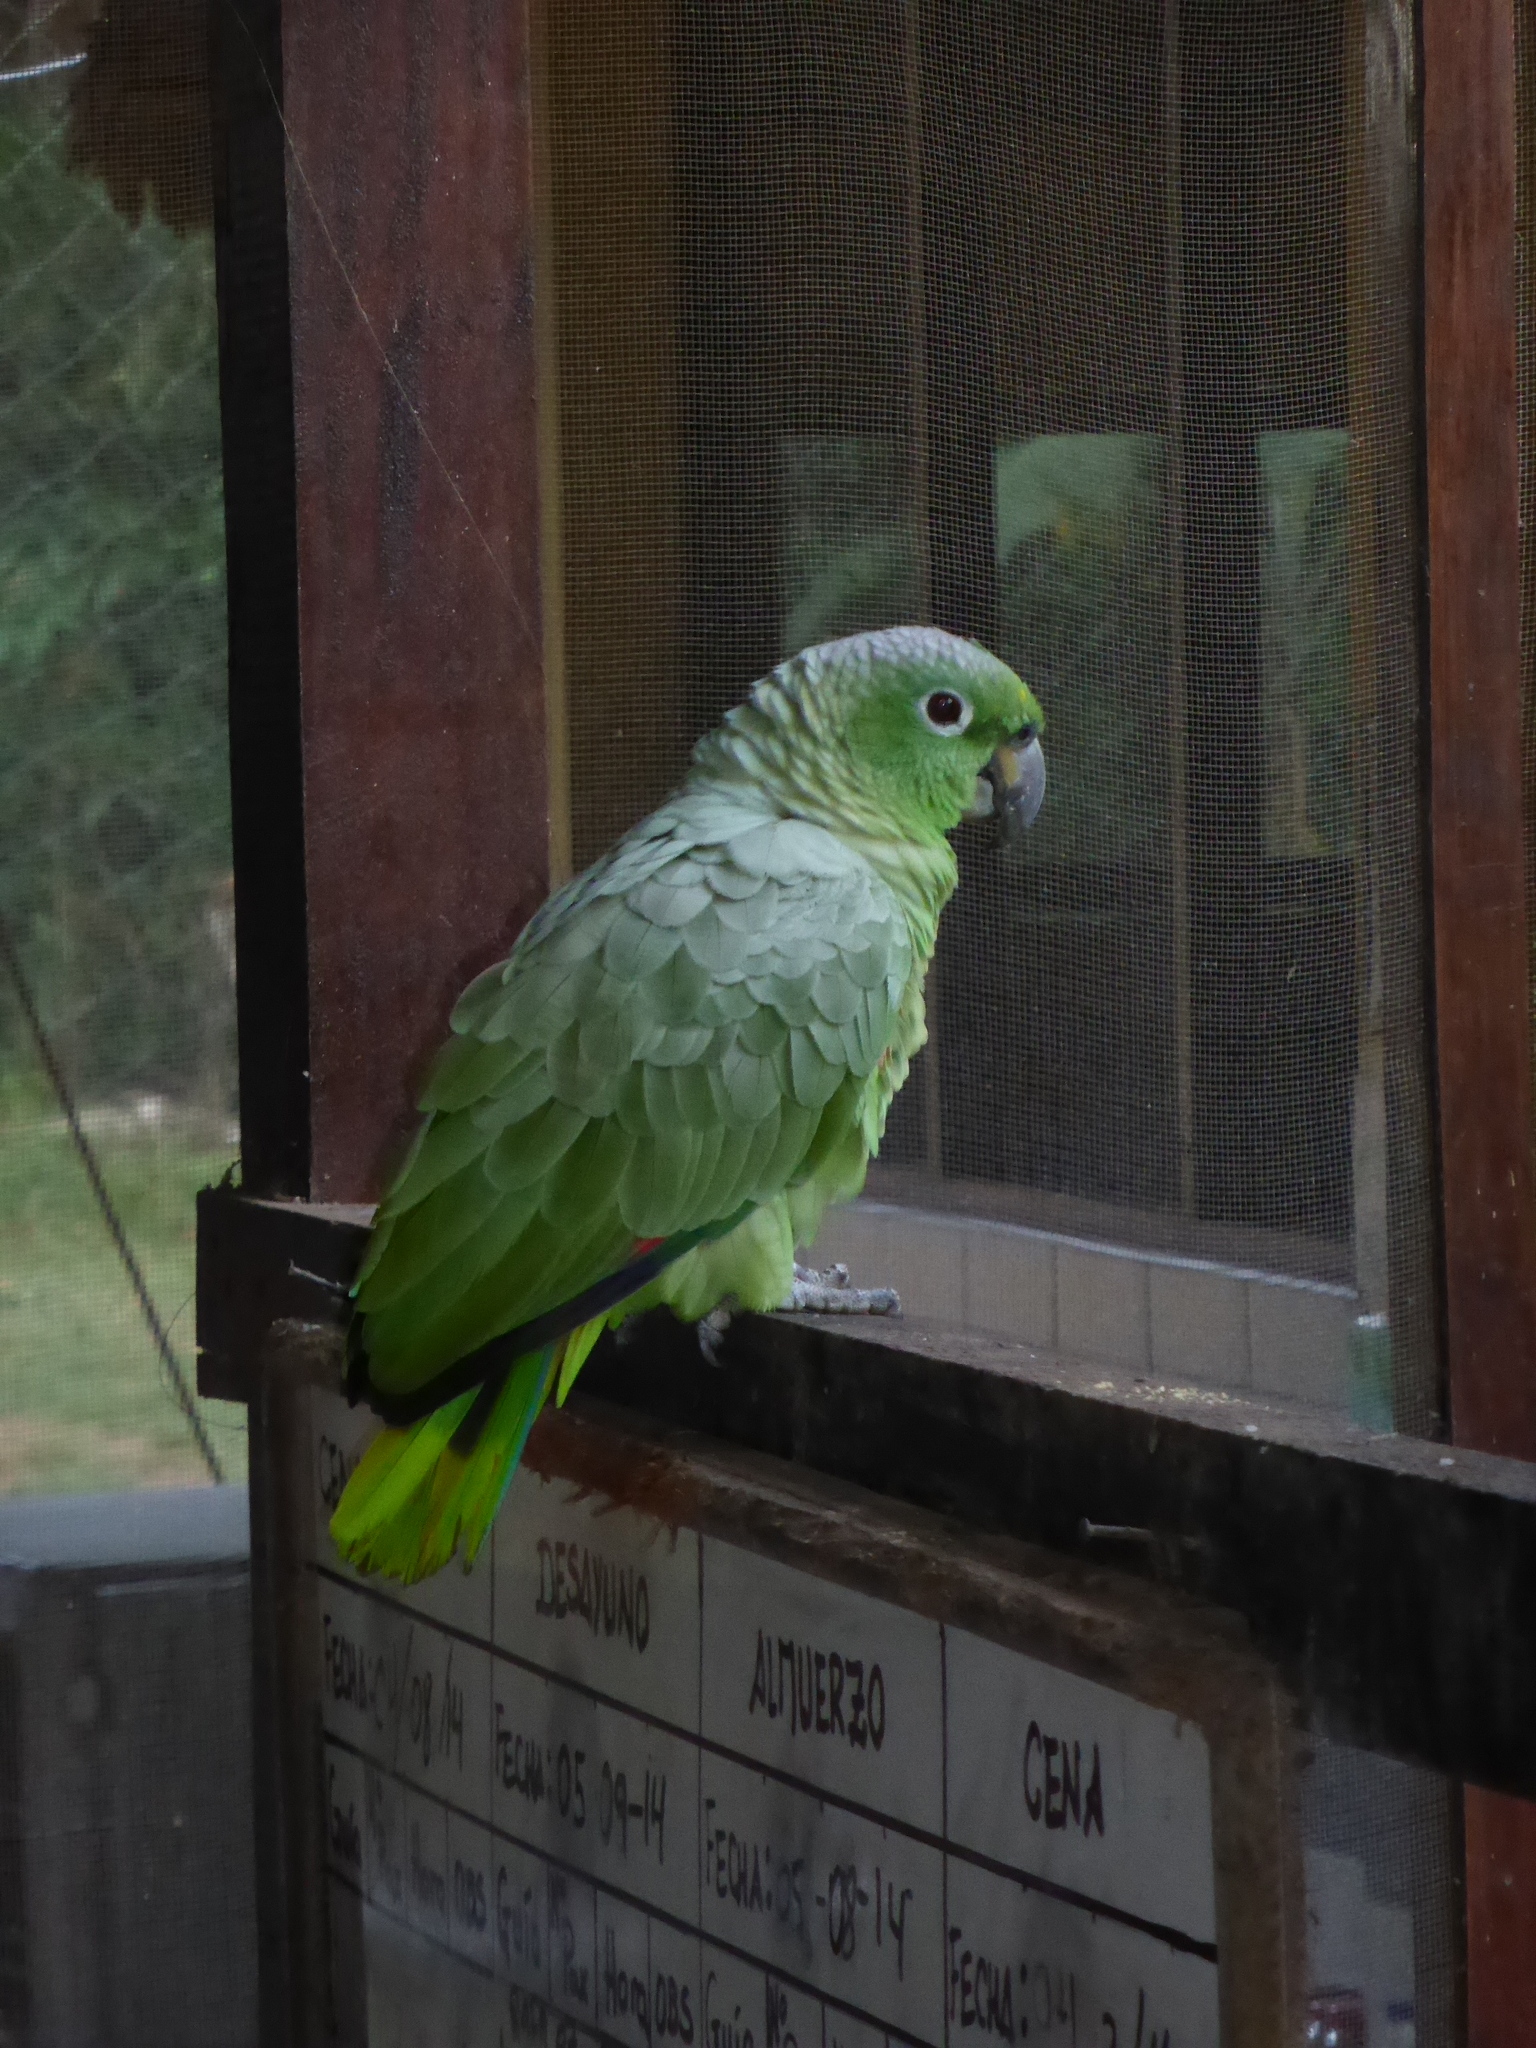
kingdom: Animalia
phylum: Chordata
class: Aves
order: Psittaciformes
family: Psittacidae
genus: Amazona
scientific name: Amazona farinosa
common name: Mealy parrot
